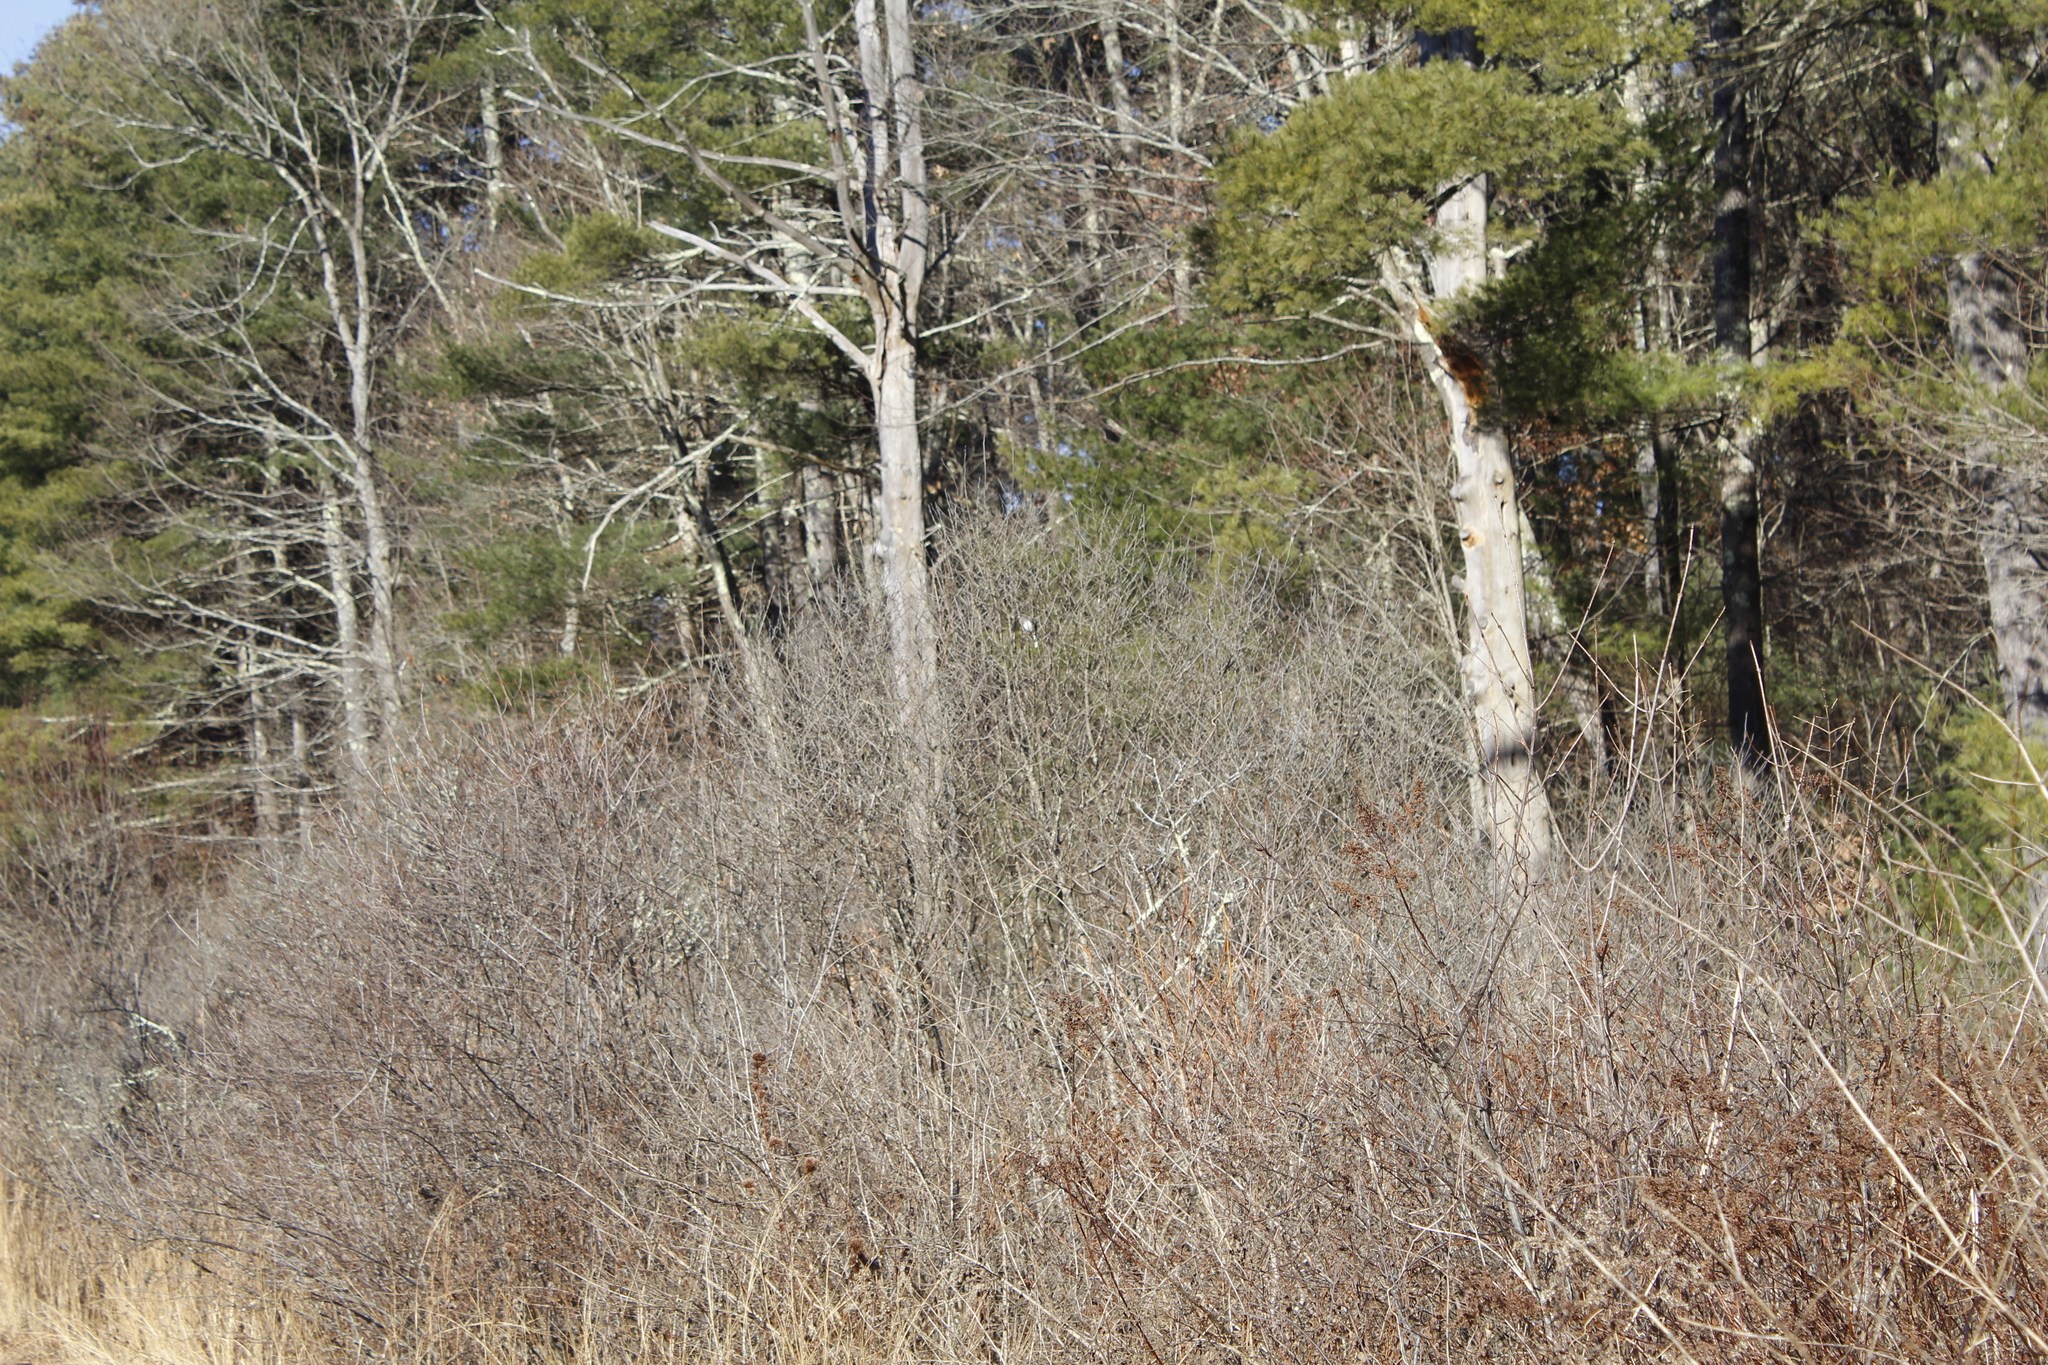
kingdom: Animalia
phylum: Chordata
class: Aves
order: Passeriformes
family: Passerellidae
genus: Junco
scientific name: Junco hyemalis
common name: Dark-eyed junco
